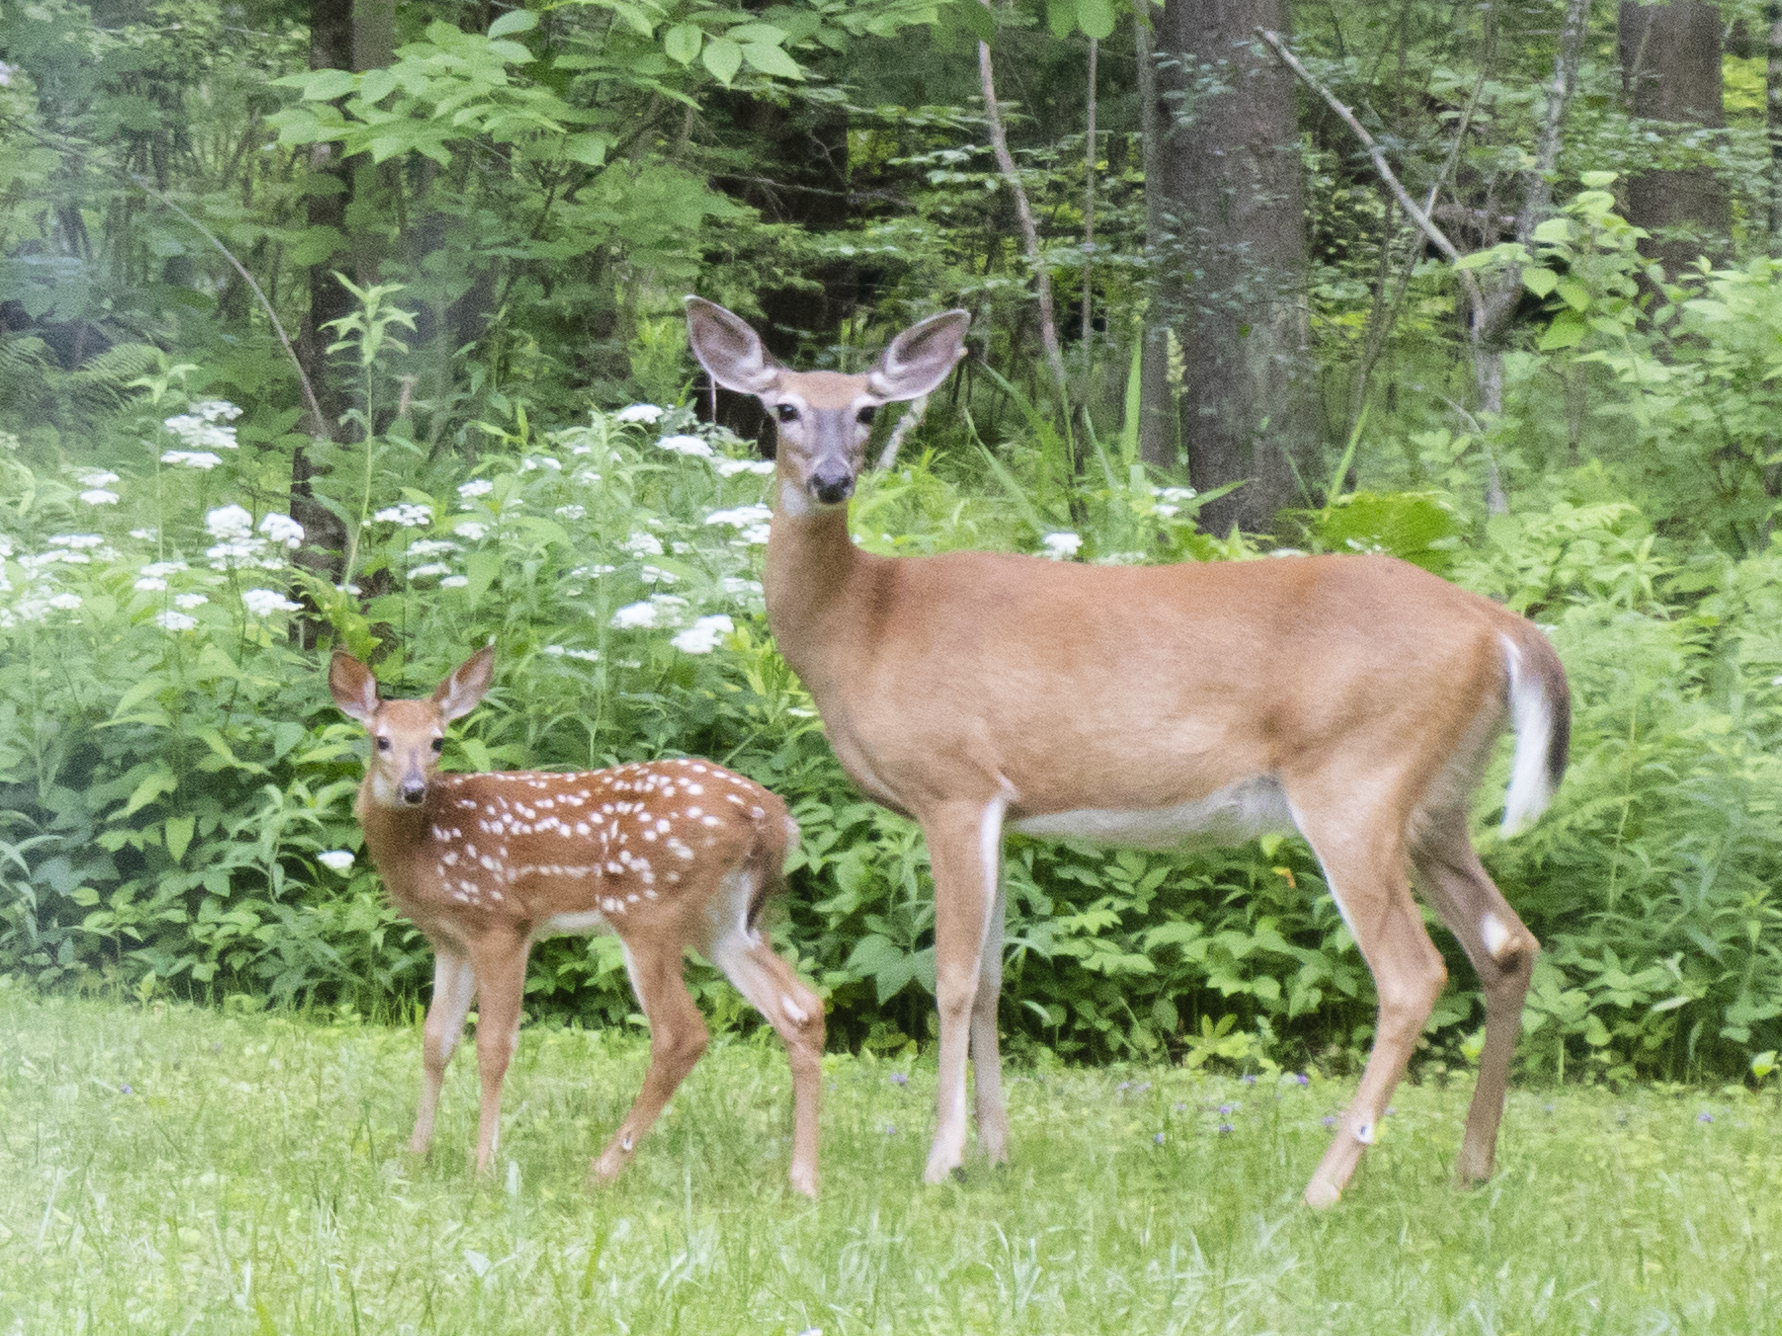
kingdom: Animalia
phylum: Chordata
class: Mammalia
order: Artiodactyla
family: Cervidae
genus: Odocoileus
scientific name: Odocoileus virginianus
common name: White-tailed deer
